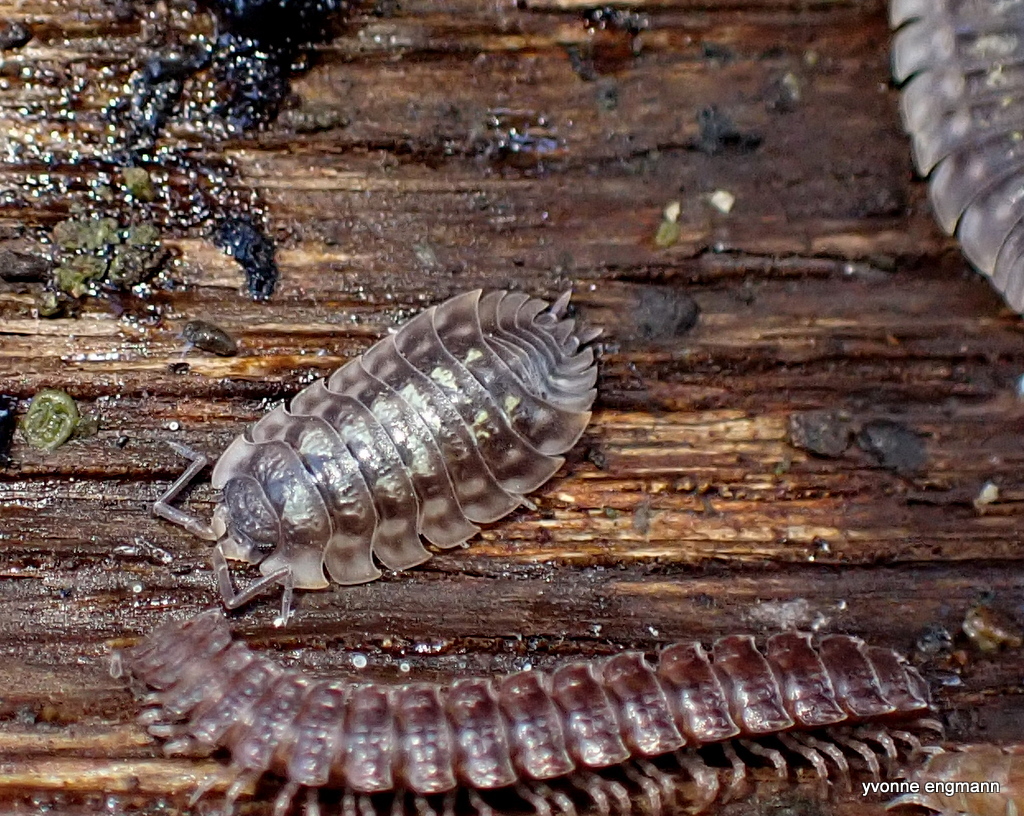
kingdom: Animalia
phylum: Arthropoda
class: Malacostraca
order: Isopoda
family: Oniscidae
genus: Oniscus
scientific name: Oniscus asellus
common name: Common shiny woodlouse
